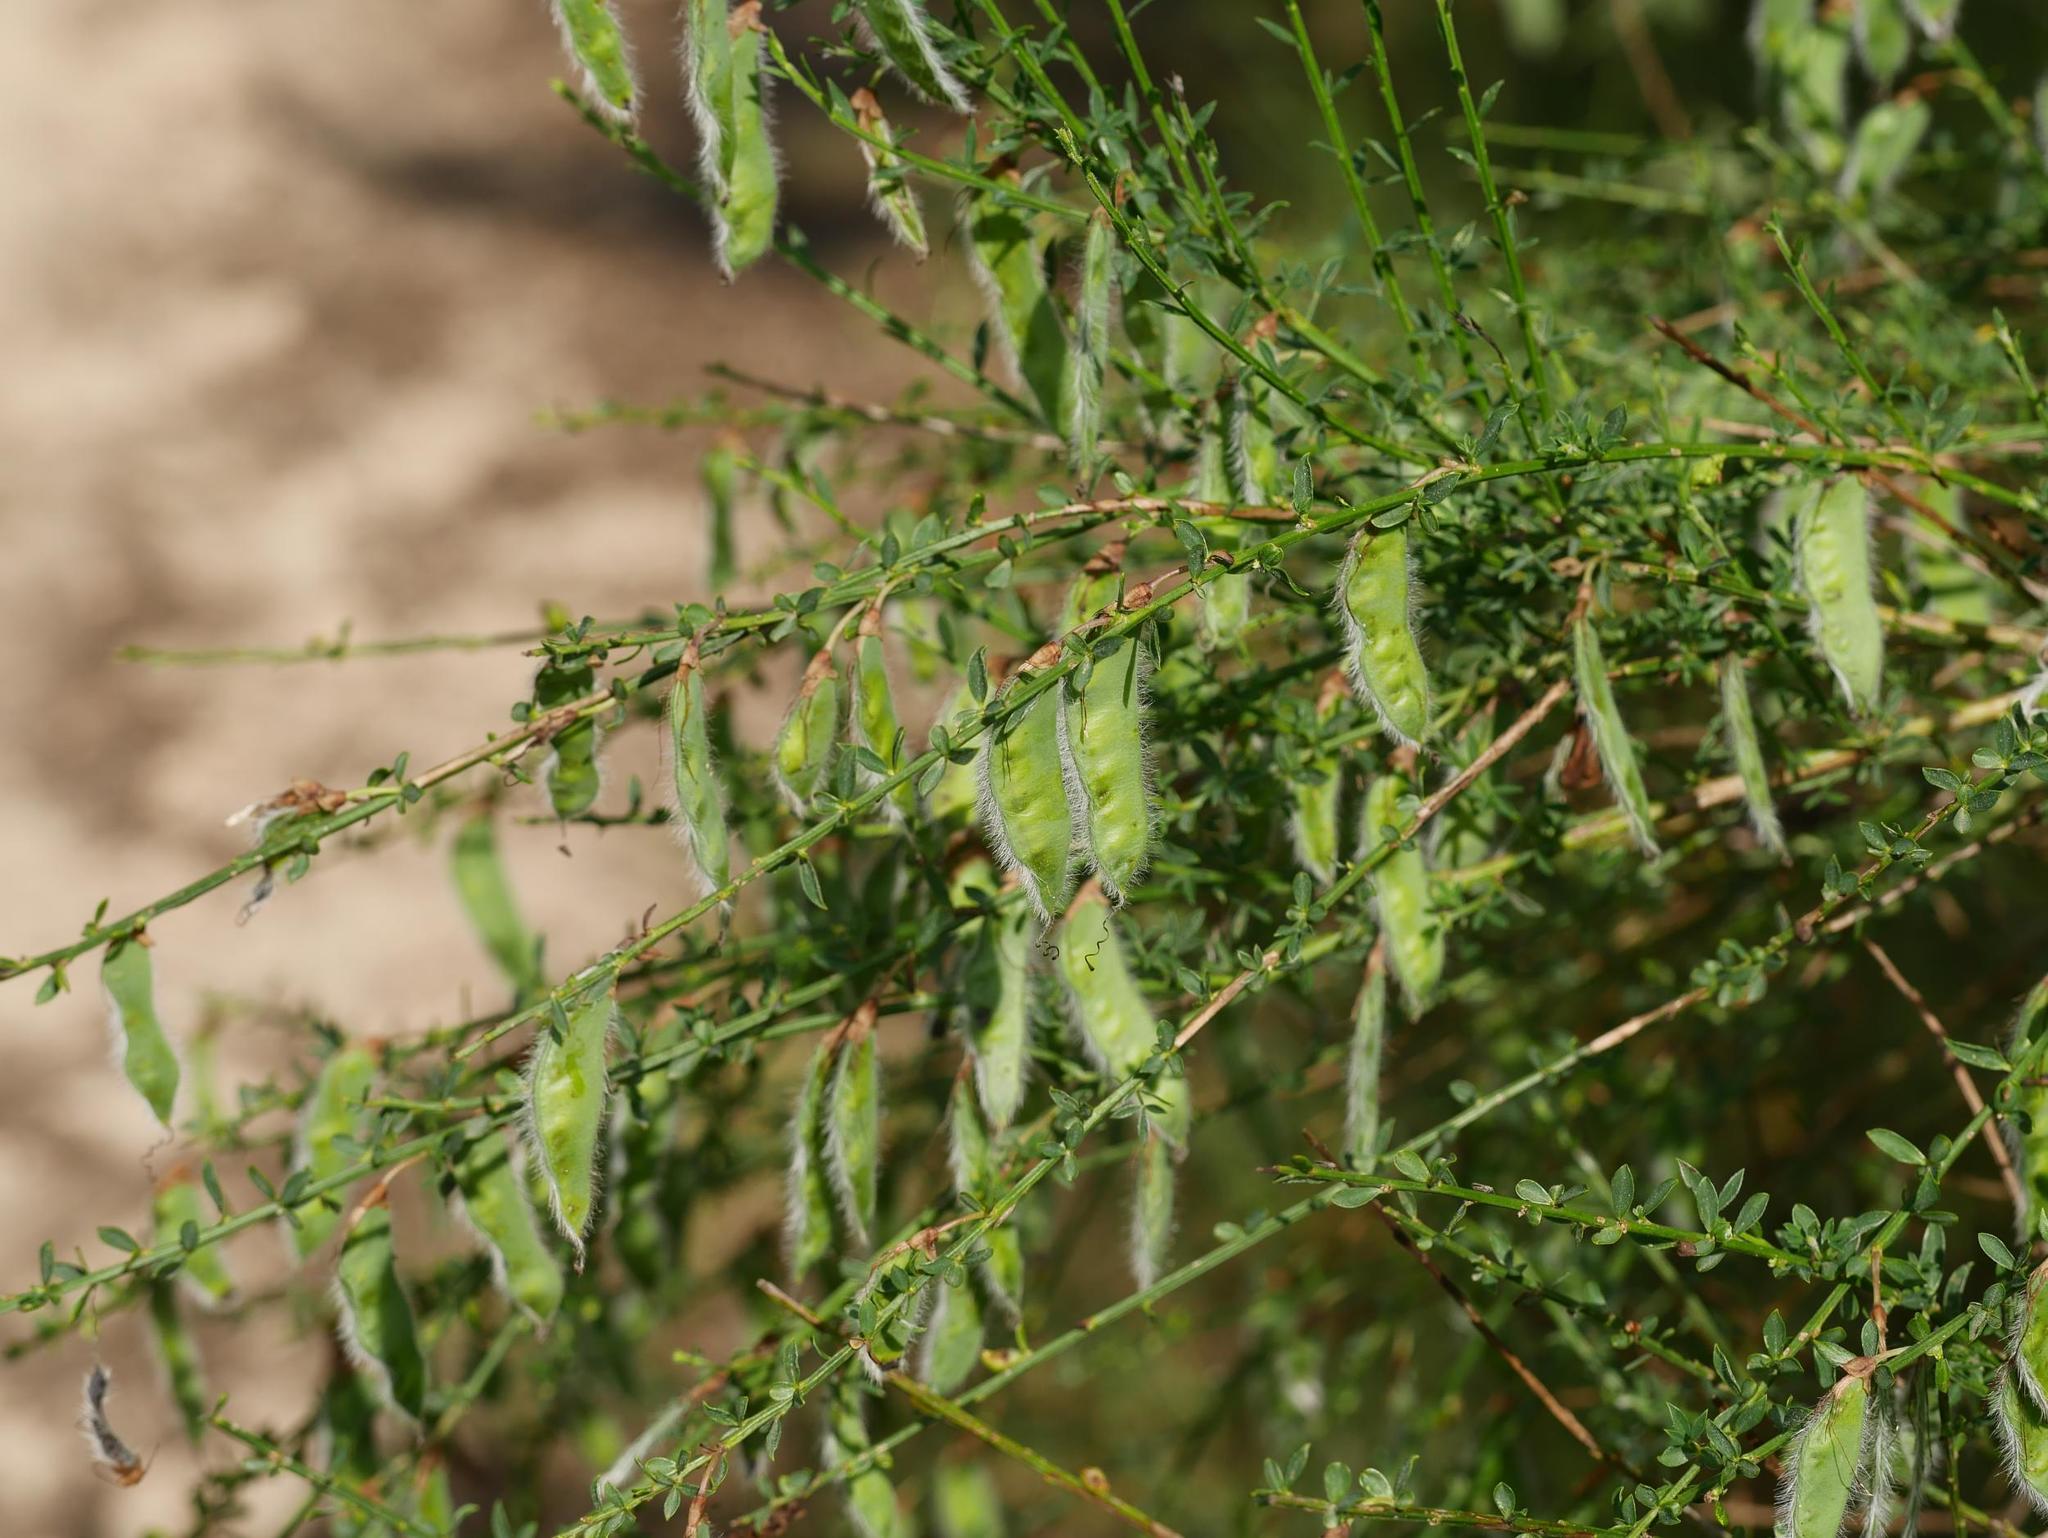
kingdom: Plantae
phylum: Tracheophyta
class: Magnoliopsida
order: Fabales
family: Fabaceae
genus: Cytisus
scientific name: Cytisus scoparius
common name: Scotch broom
